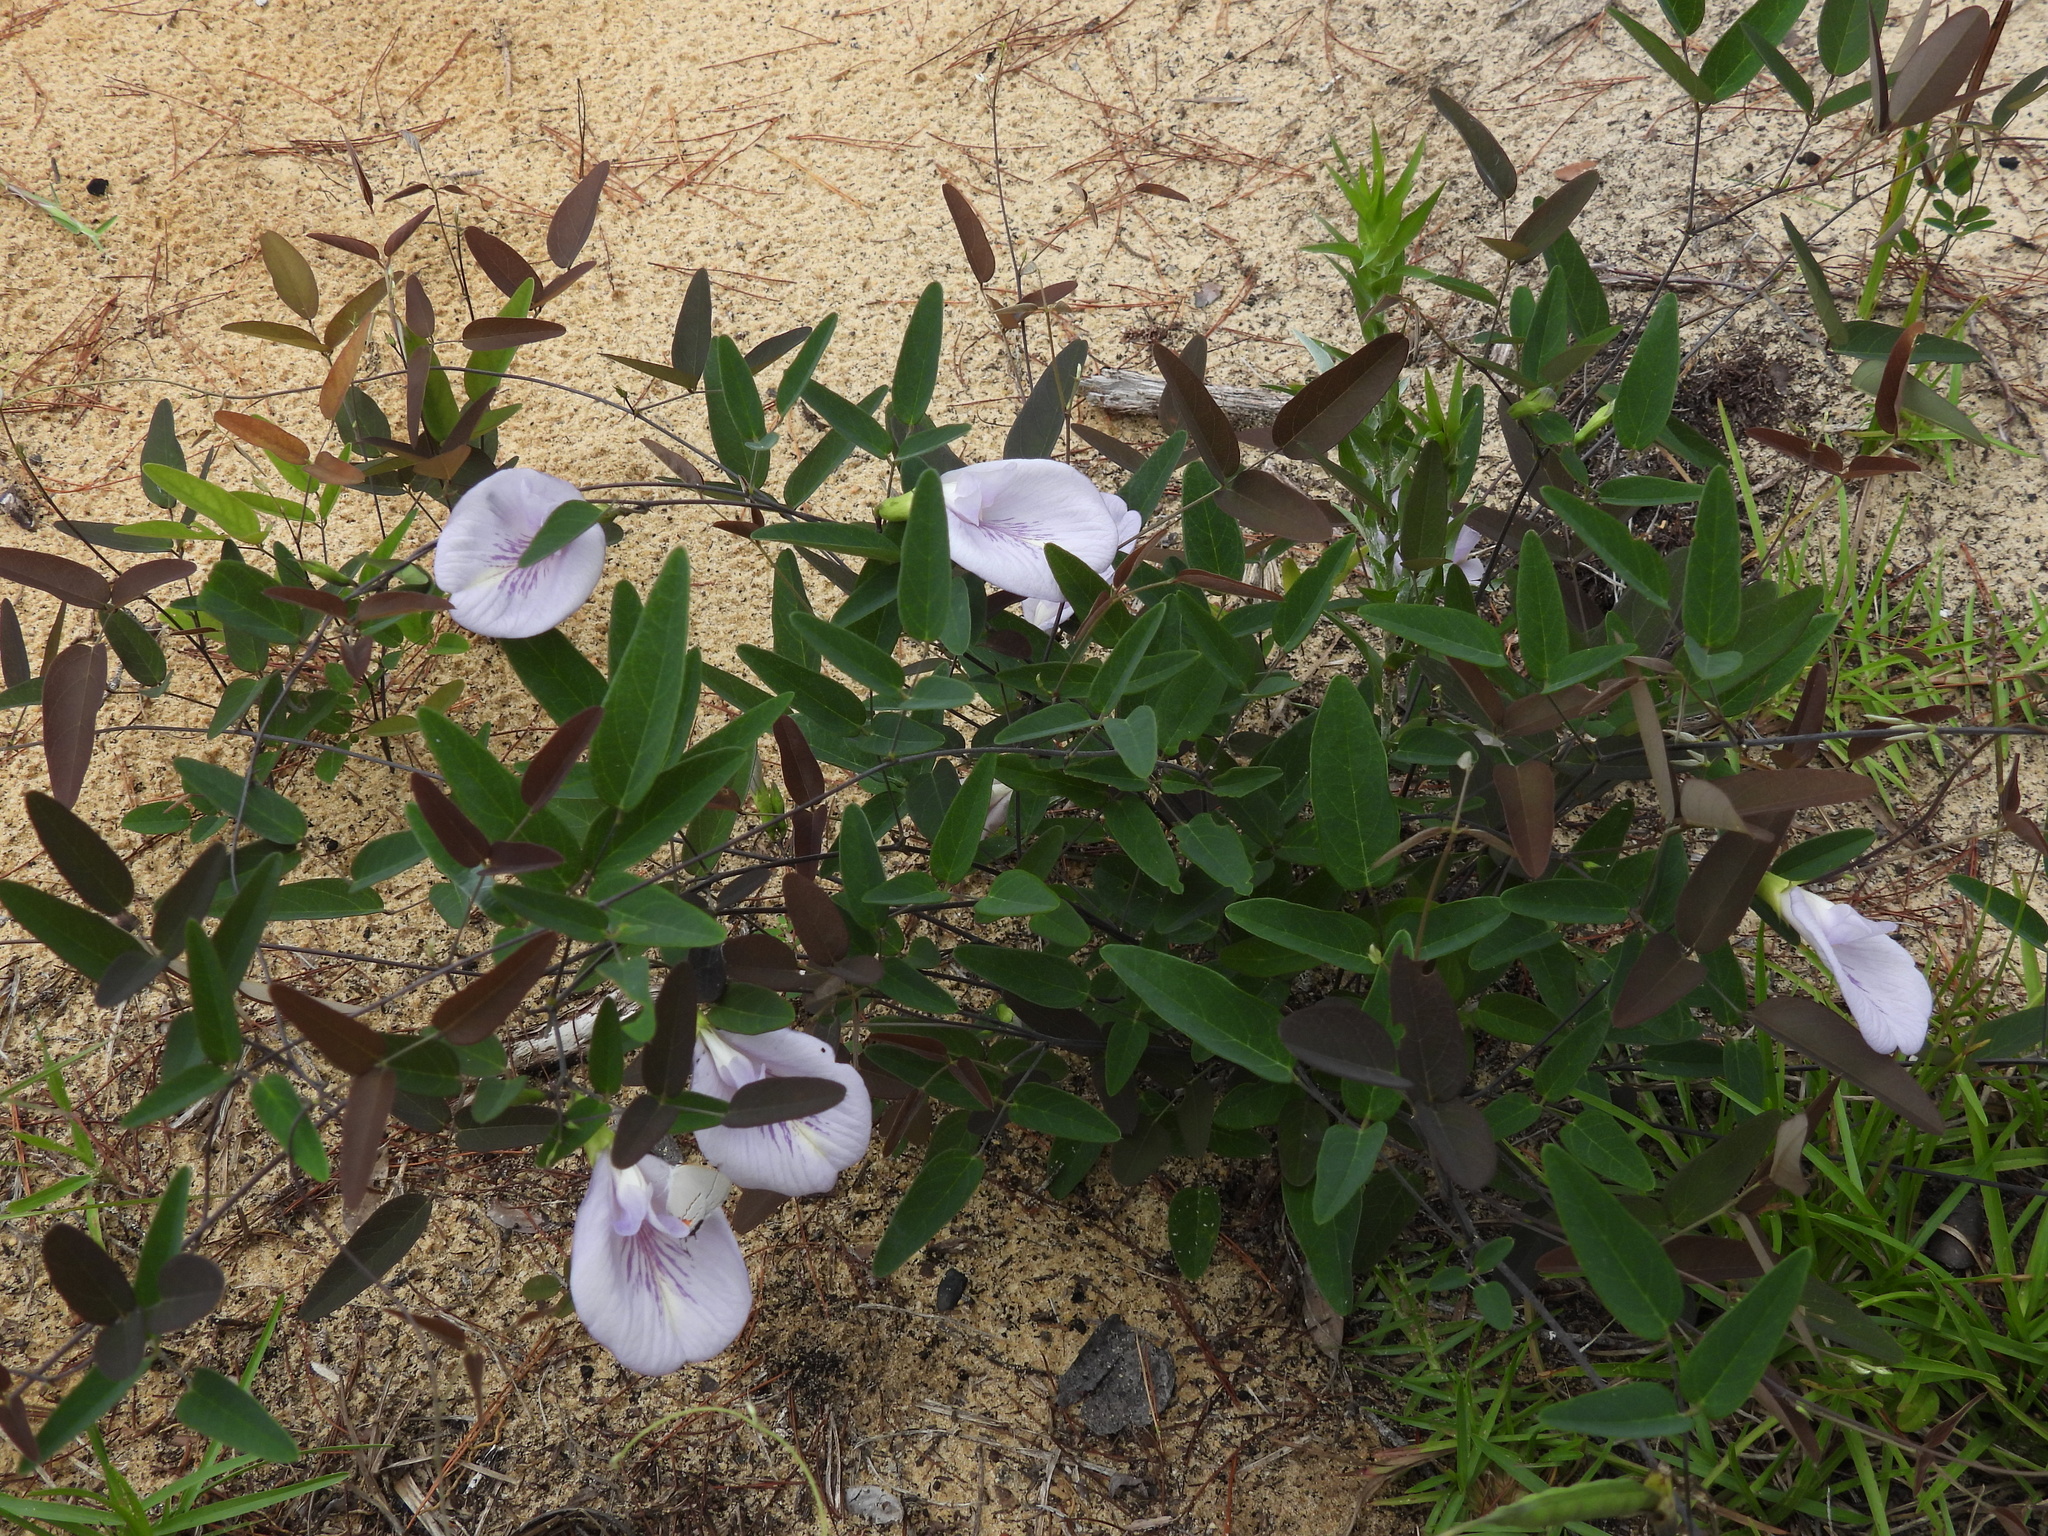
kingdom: Plantae
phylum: Tracheophyta
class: Magnoliopsida
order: Fabales
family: Fabaceae
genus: Clitoria
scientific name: Clitoria fragrans
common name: Pigeon-wings
